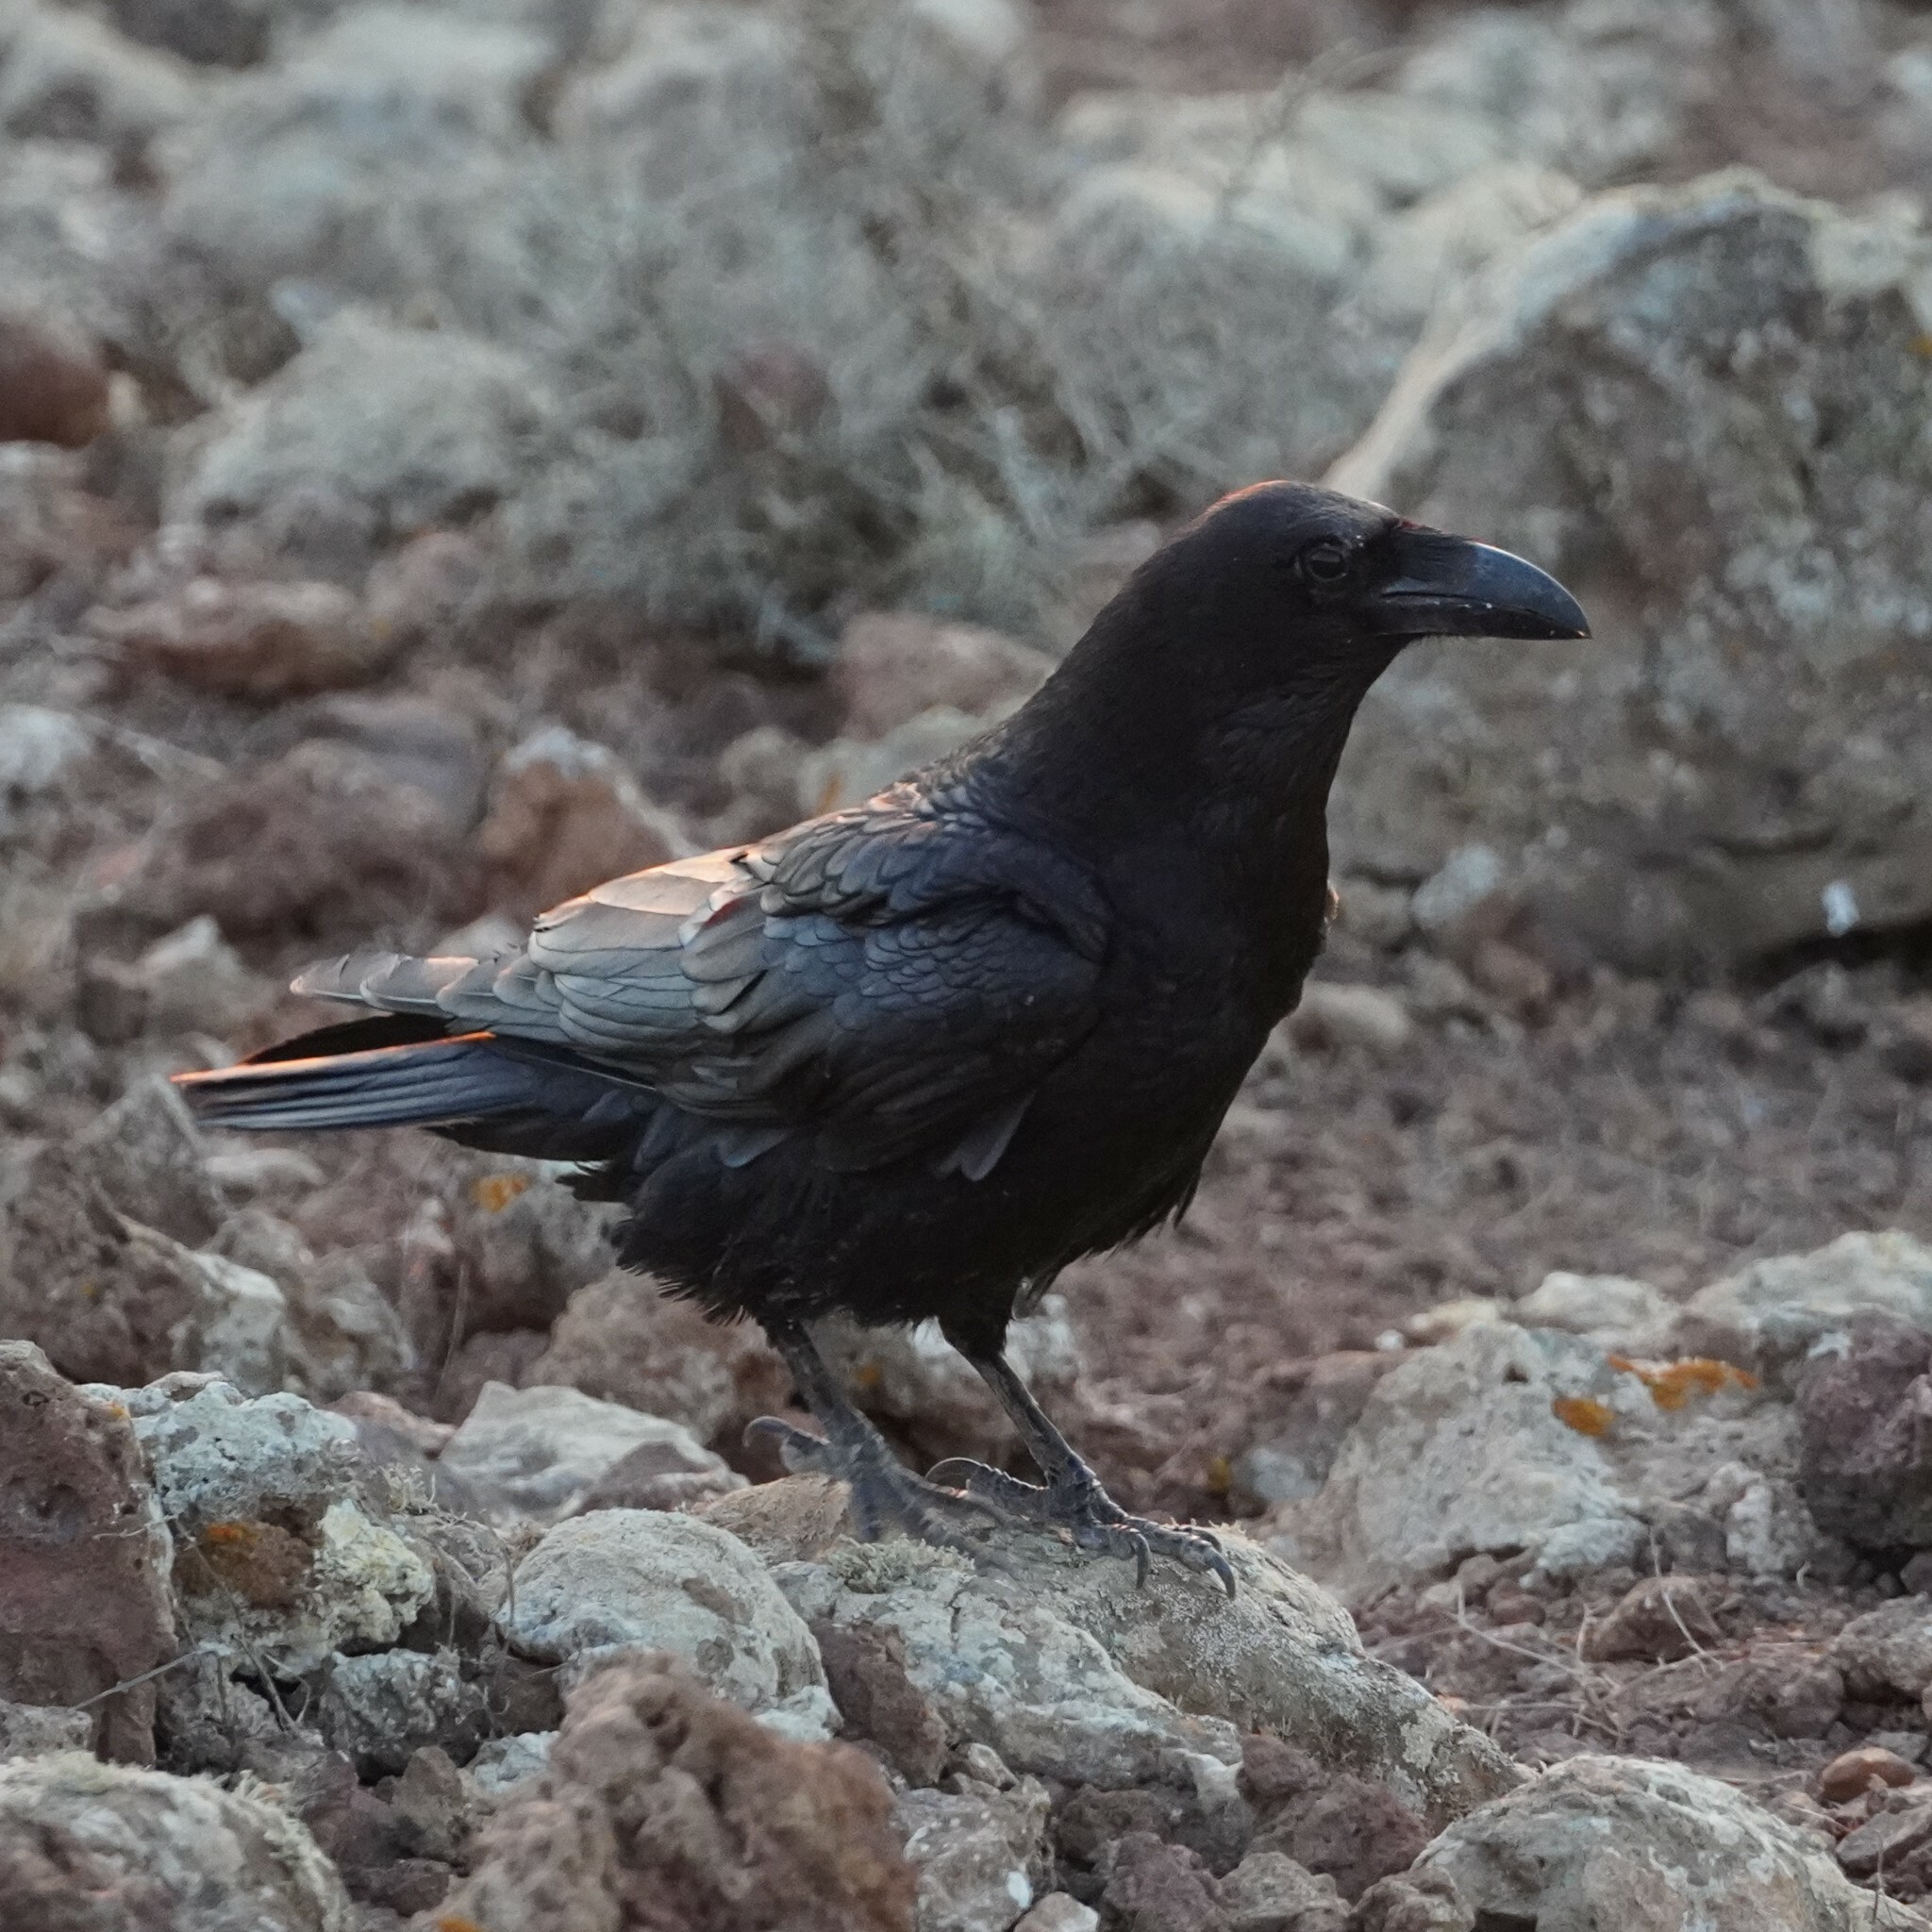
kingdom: Animalia
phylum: Chordata
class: Aves
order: Passeriformes
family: Corvidae
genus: Corvus
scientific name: Corvus corax
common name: Common raven
